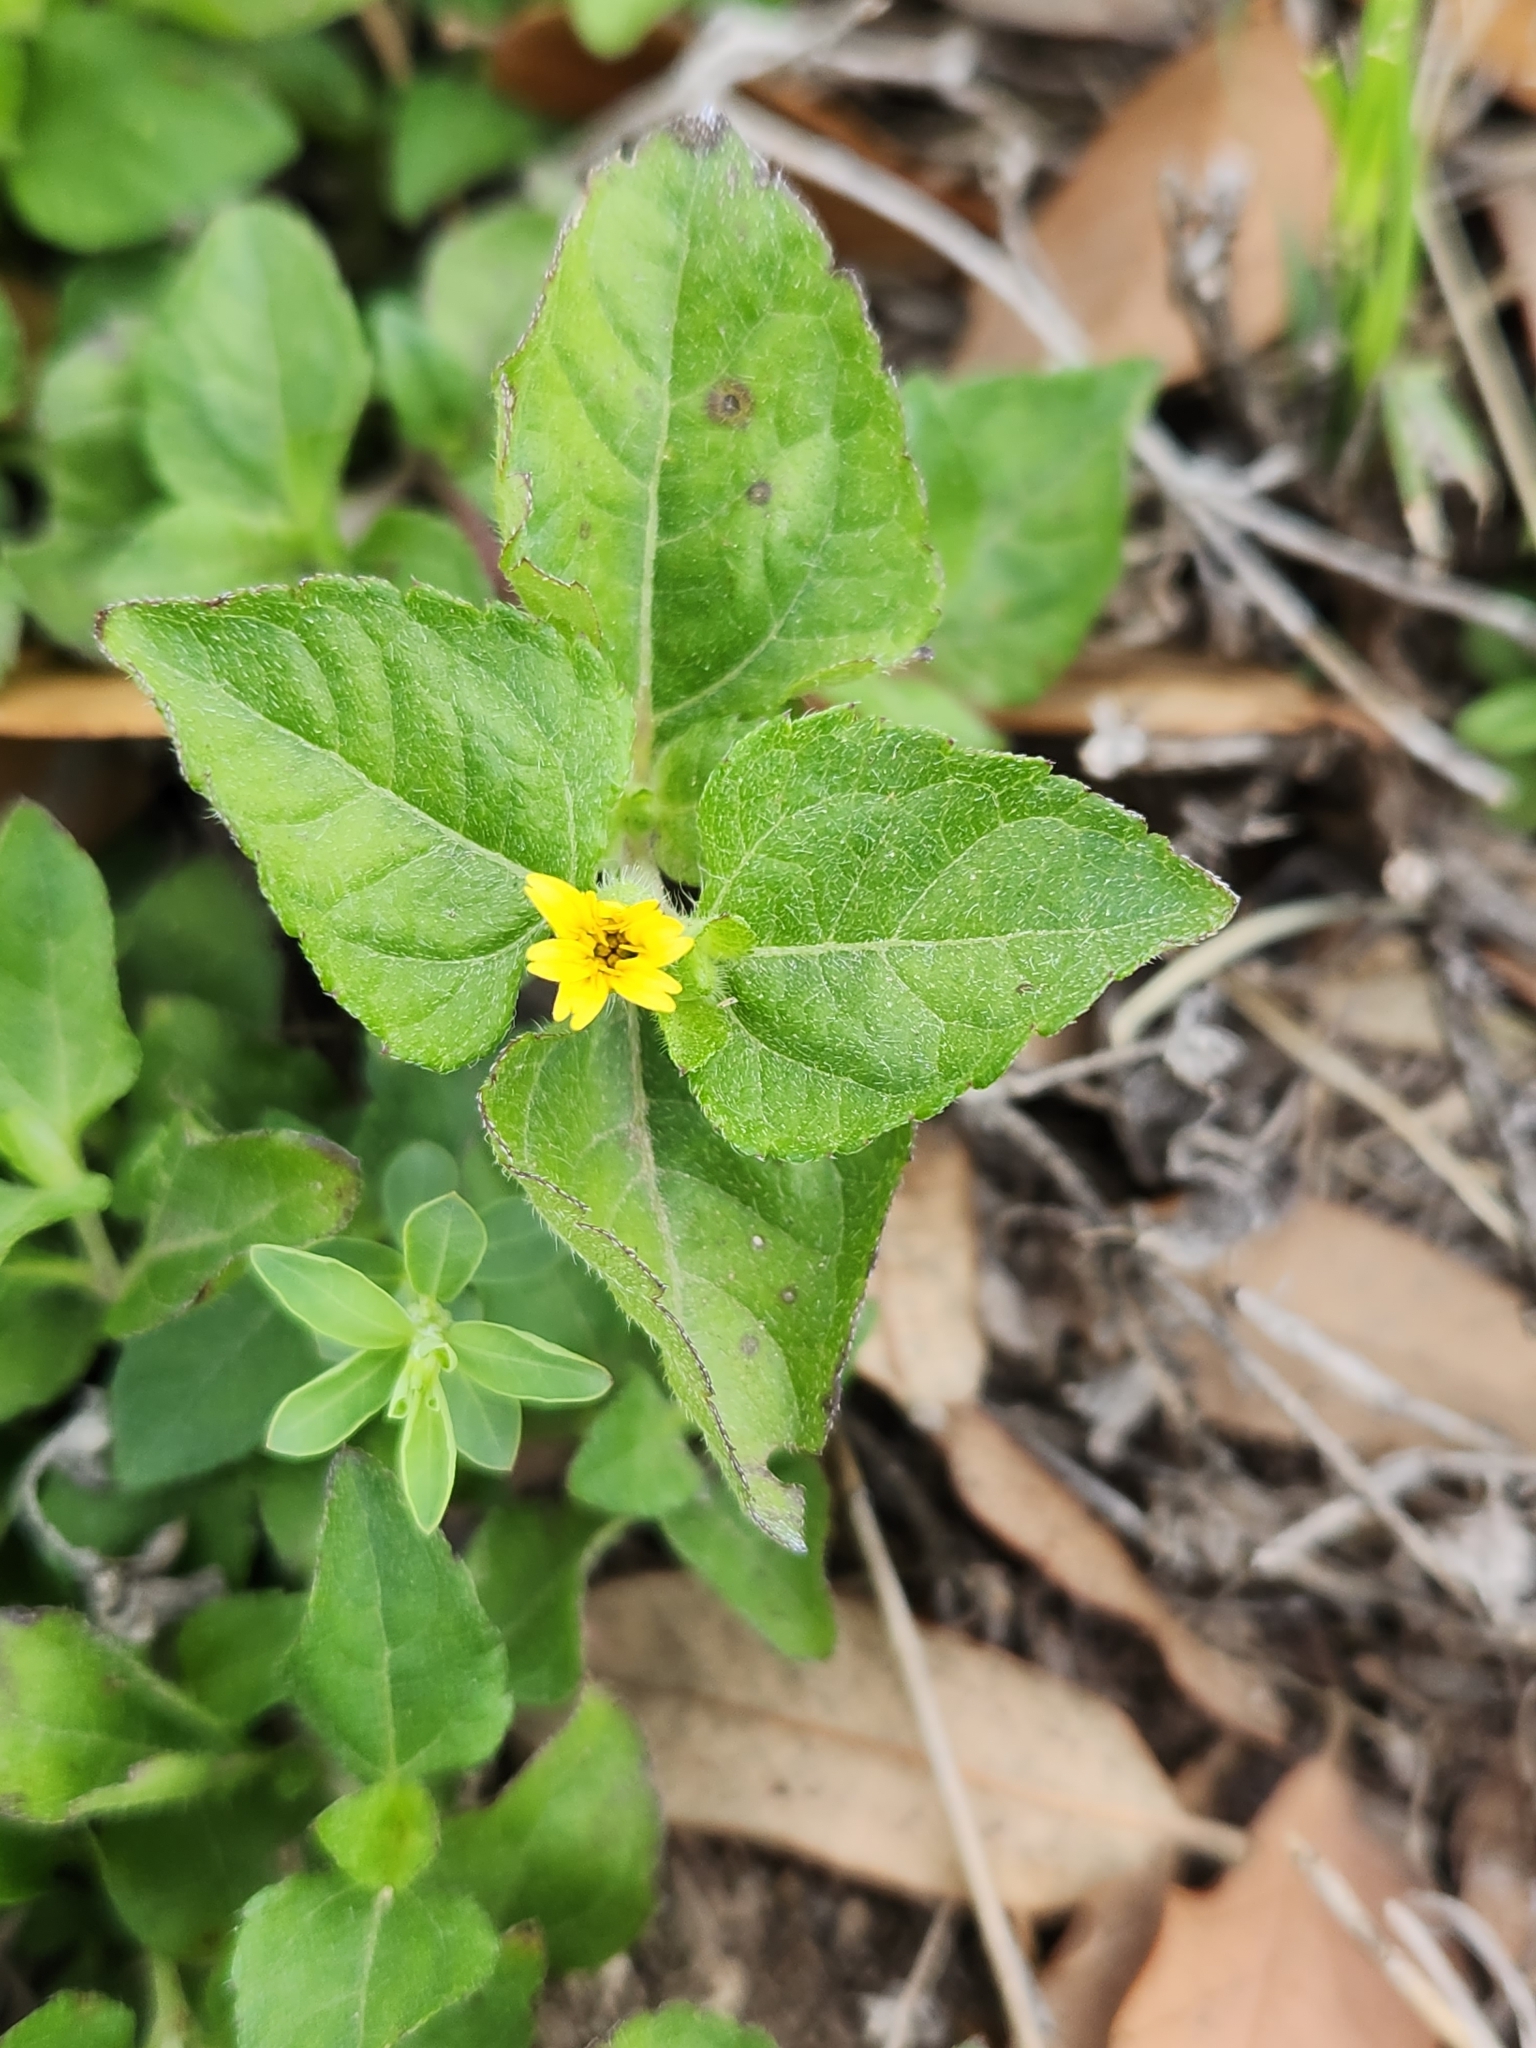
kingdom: Plantae
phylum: Tracheophyta
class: Magnoliopsida
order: Asterales
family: Asteraceae
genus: Calyptocarpus
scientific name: Calyptocarpus vialis
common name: Straggler daisy
